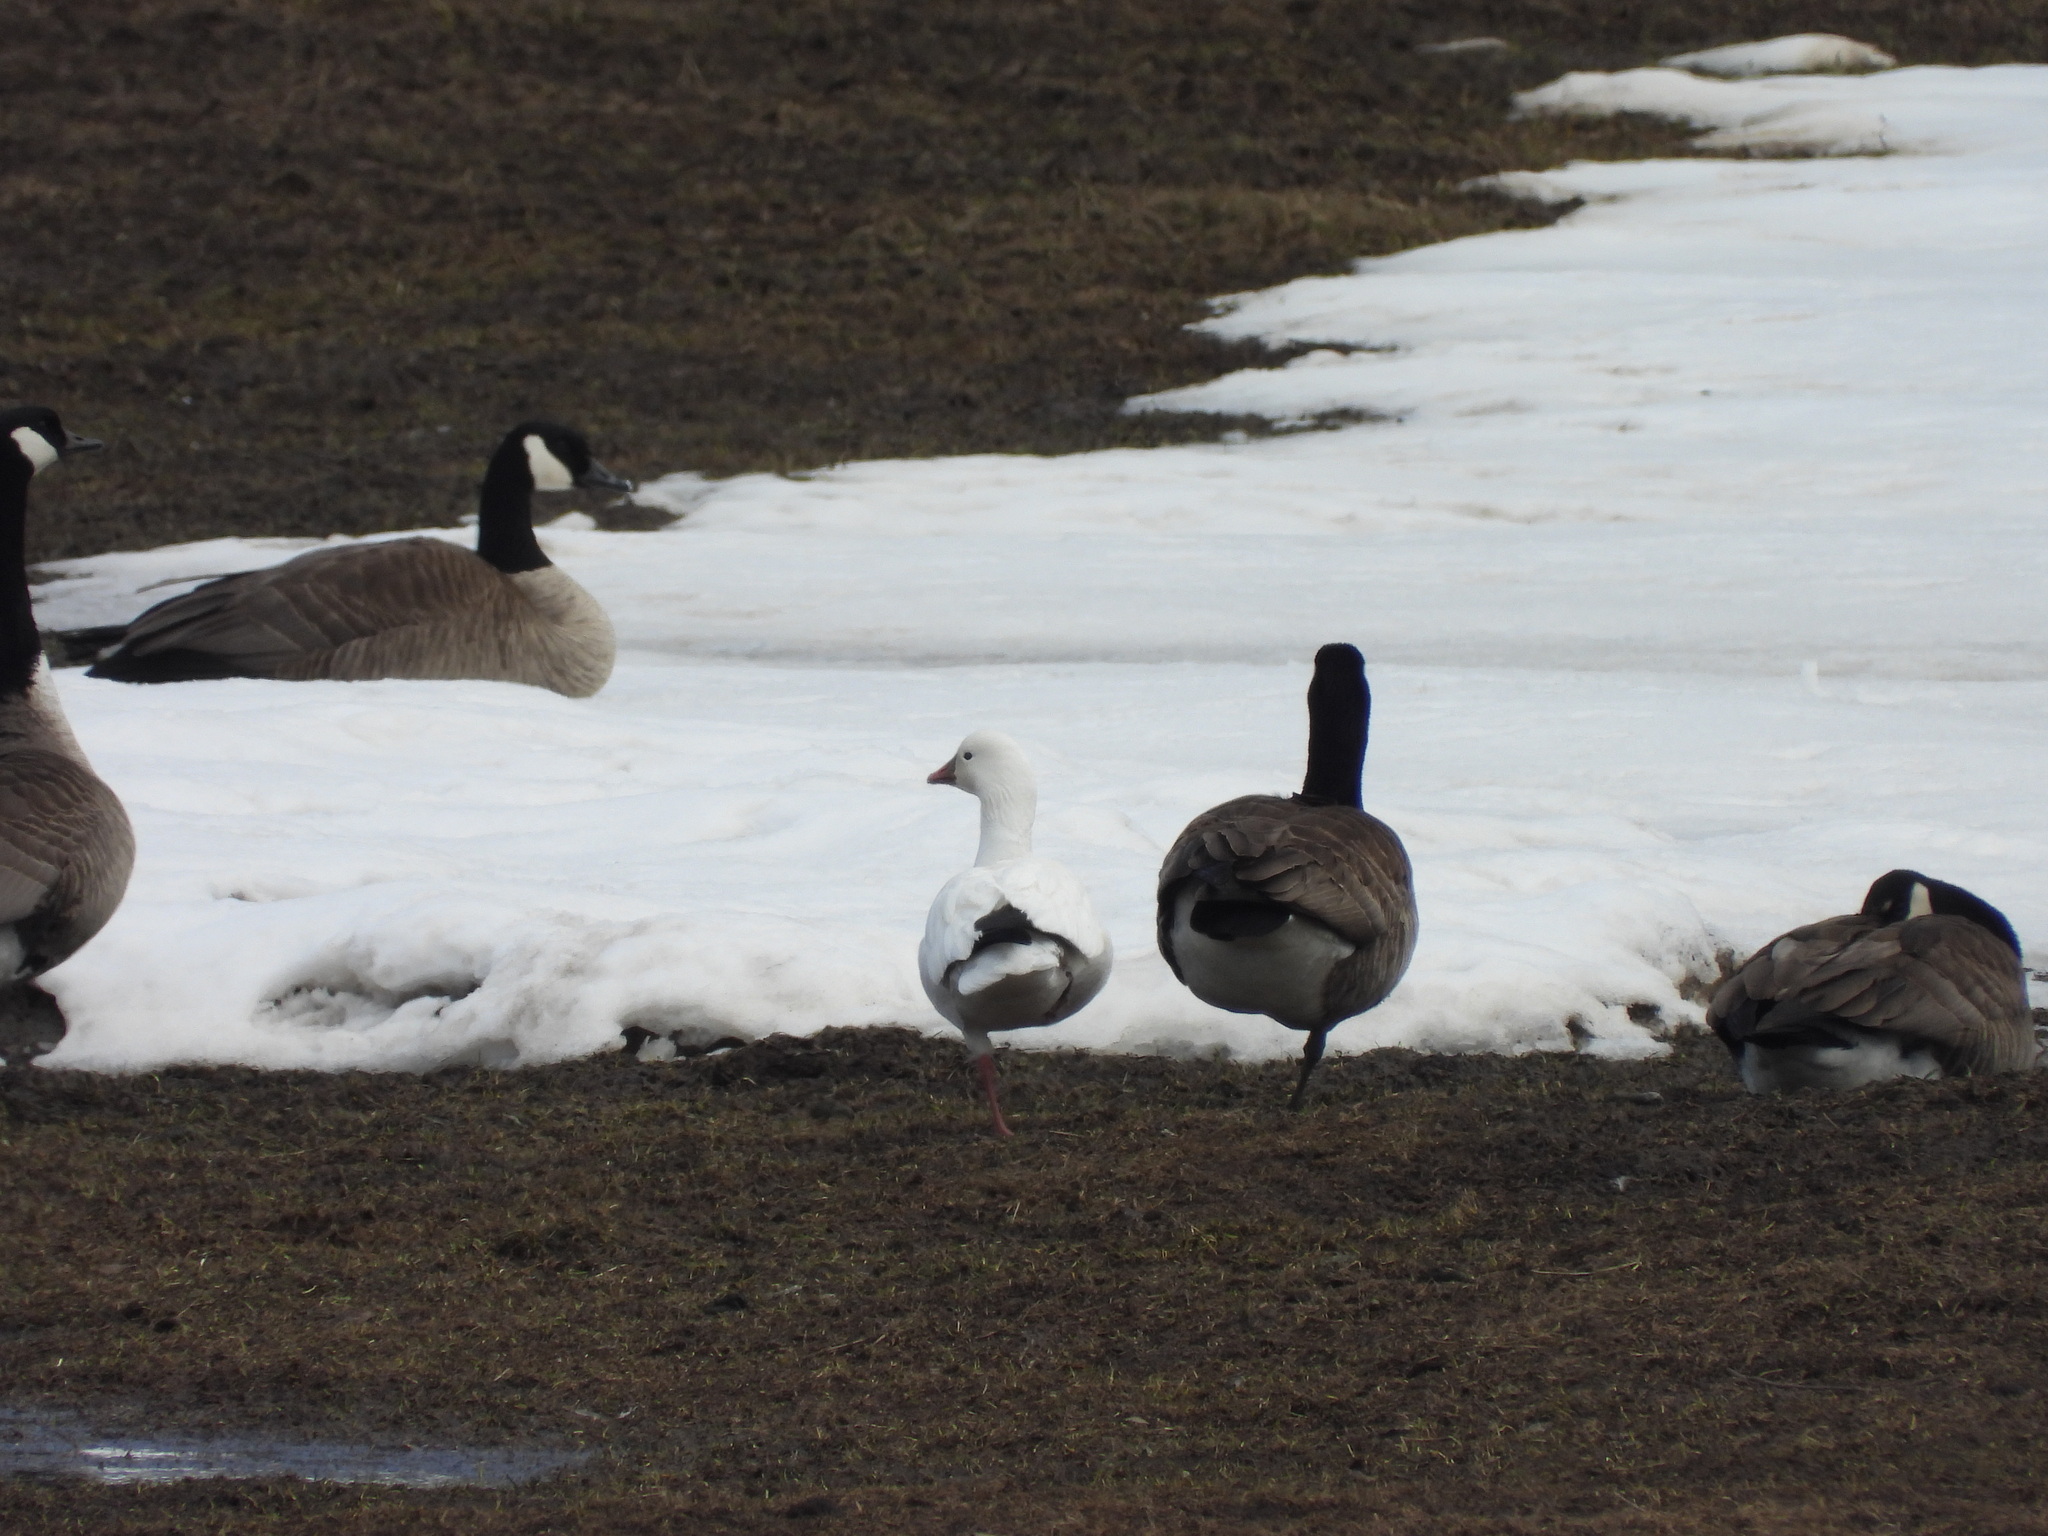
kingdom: Animalia
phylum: Chordata
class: Aves
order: Anseriformes
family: Anatidae
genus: Anser
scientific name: Anser rossii
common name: Ross's goose
